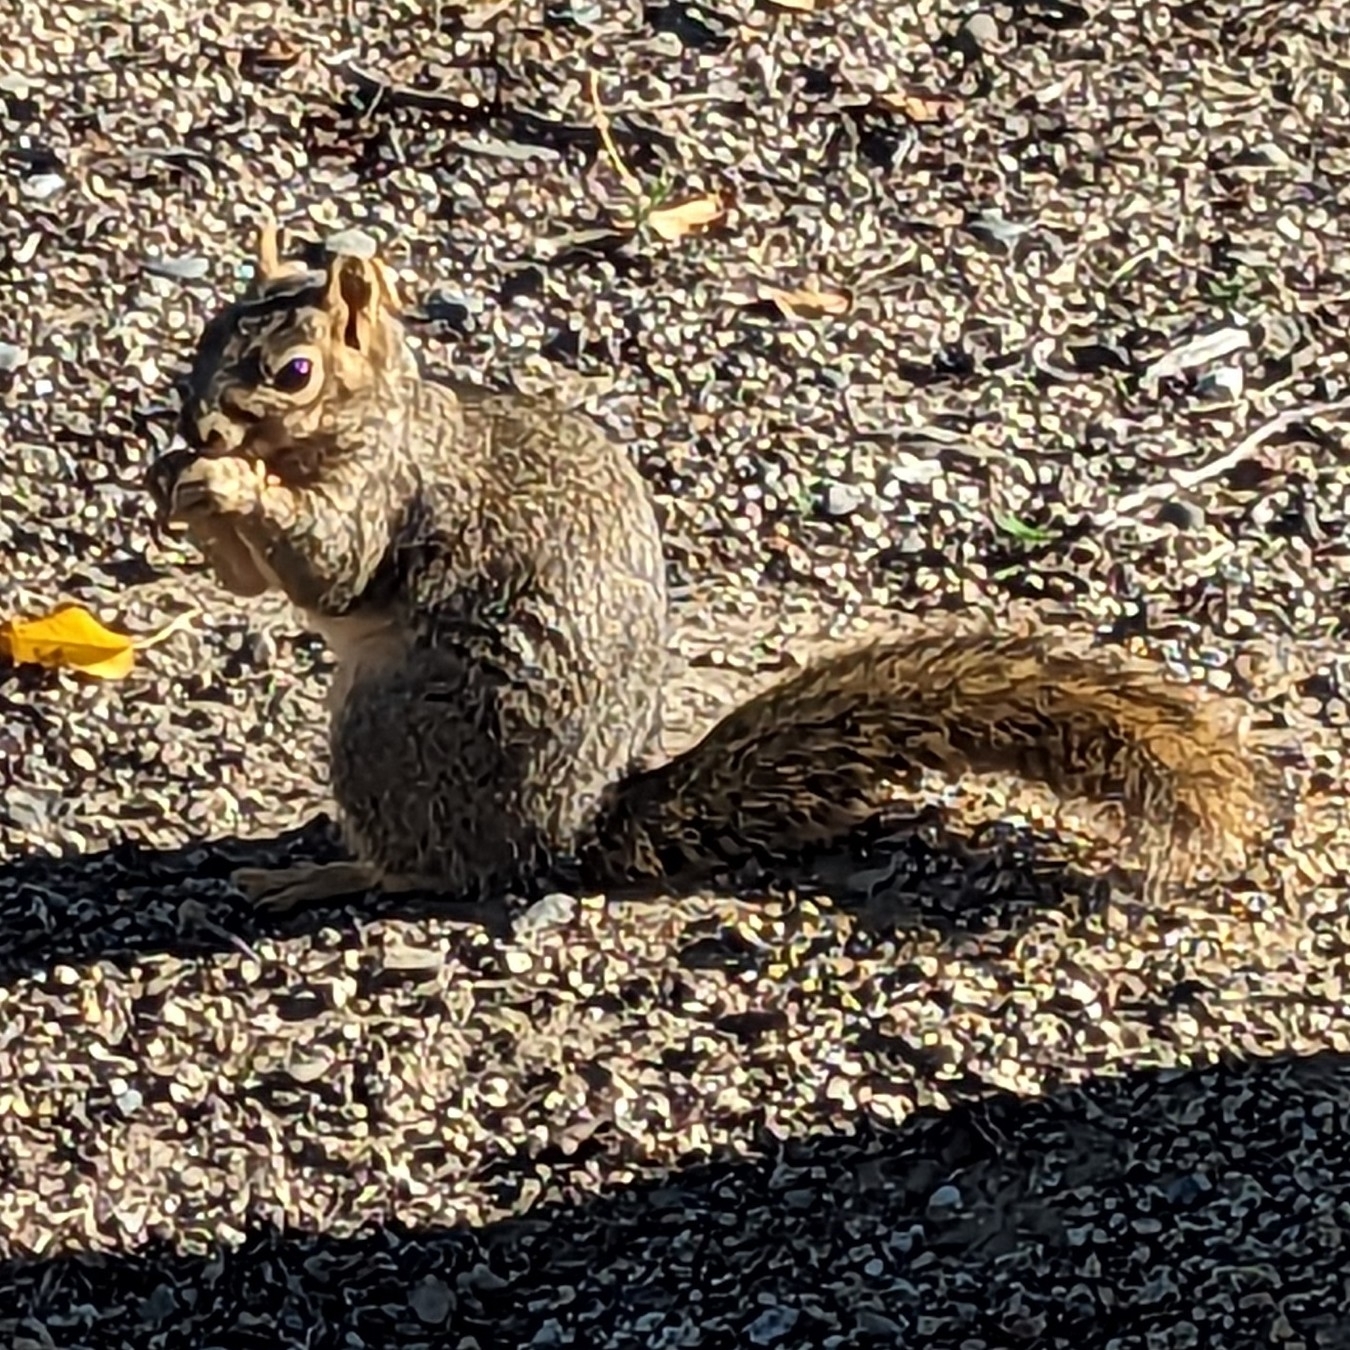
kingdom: Animalia
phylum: Chordata
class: Mammalia
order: Rodentia
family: Sciuridae
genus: Sciurus
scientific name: Sciurus niger
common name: Fox squirrel
